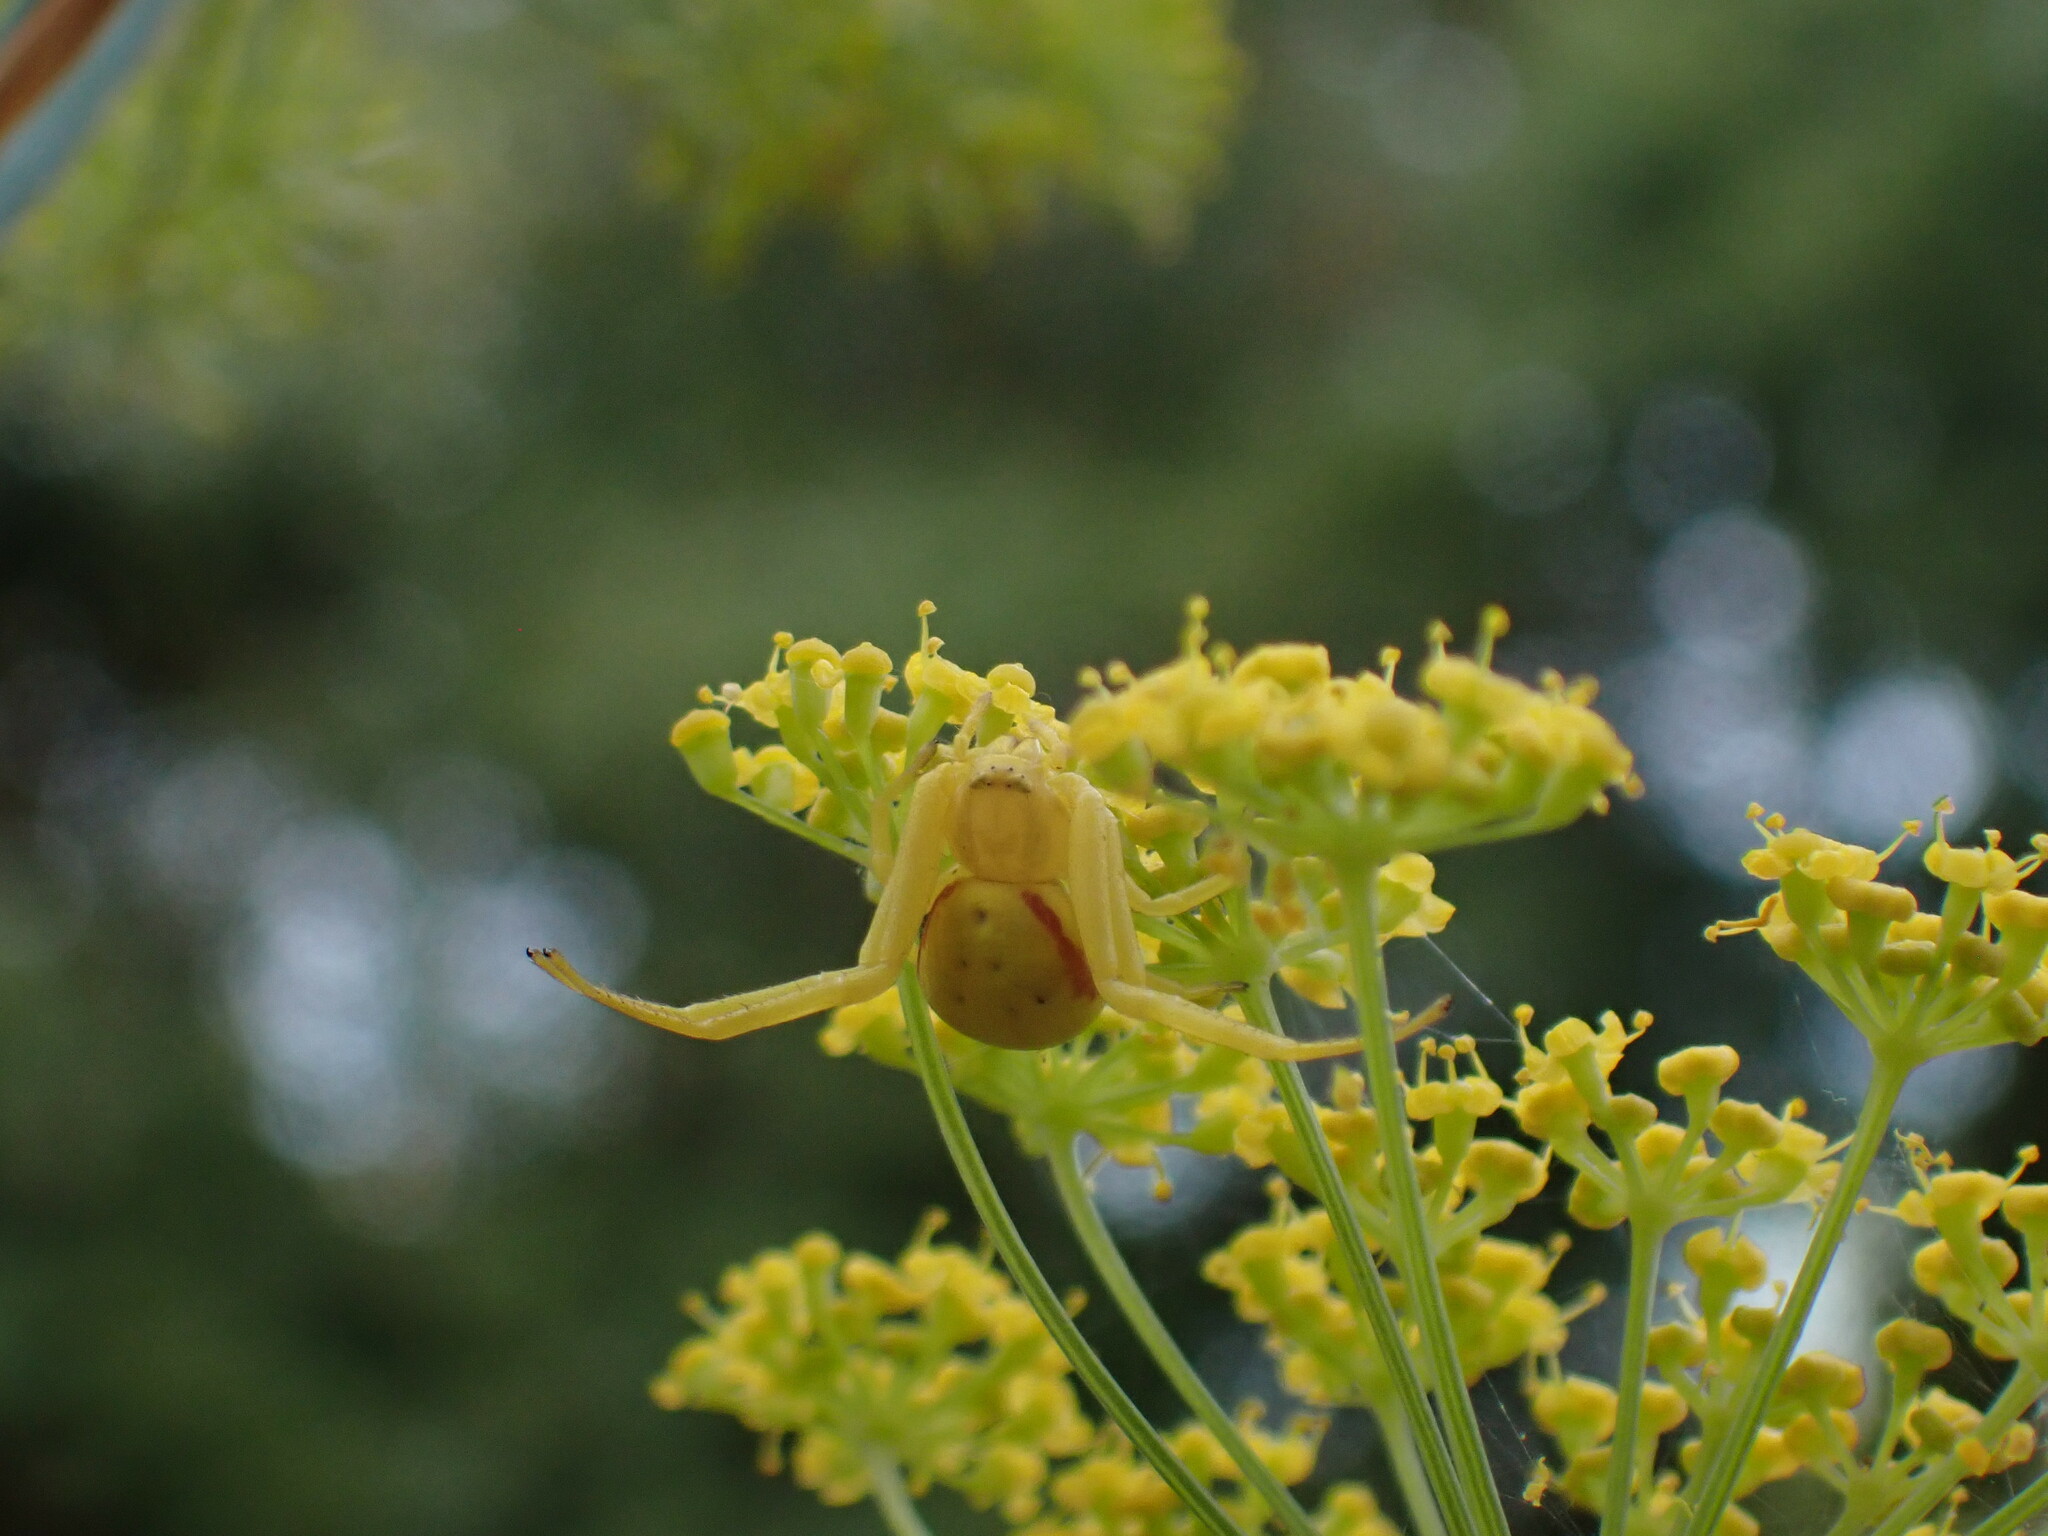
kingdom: Animalia
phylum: Arthropoda
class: Arachnida
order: Araneae
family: Thomisidae
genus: Misumena
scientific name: Misumena vatia
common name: Goldenrod crab spider
